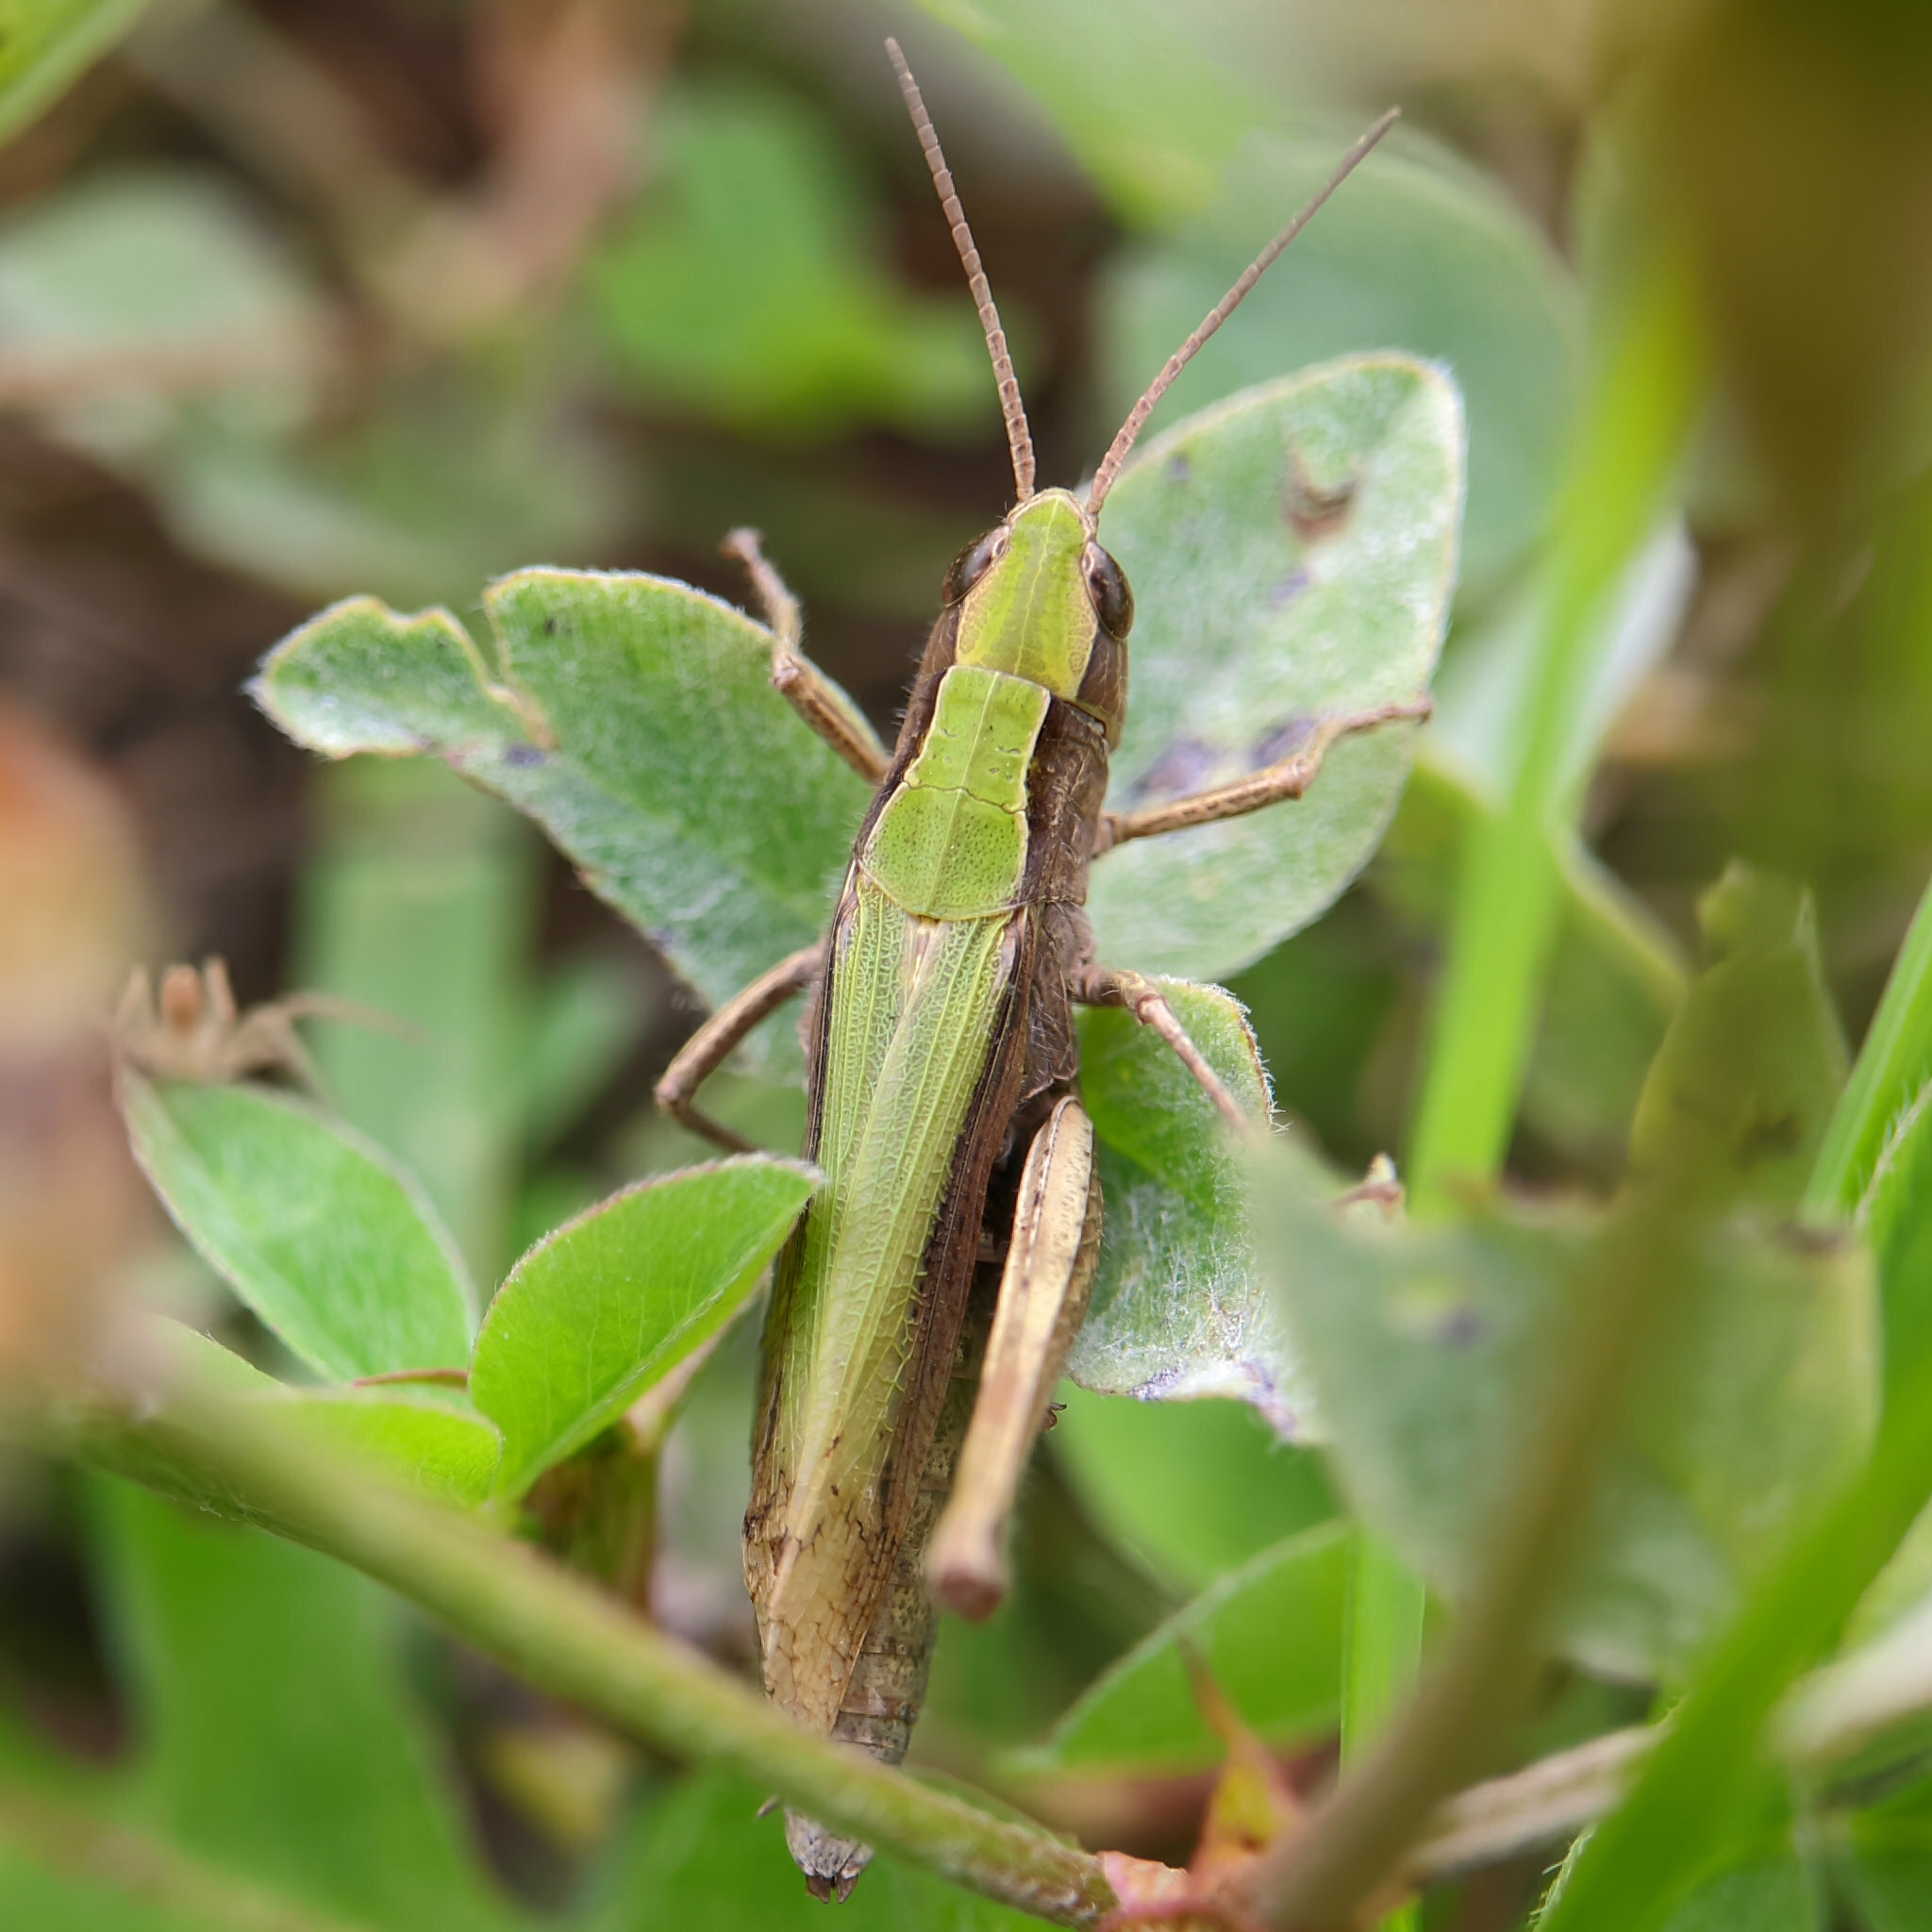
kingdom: Animalia
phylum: Arthropoda
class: Insecta
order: Orthoptera
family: Acrididae
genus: Chorthippus
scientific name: Chorthippus dorsatus
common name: Steppe grasshopper
